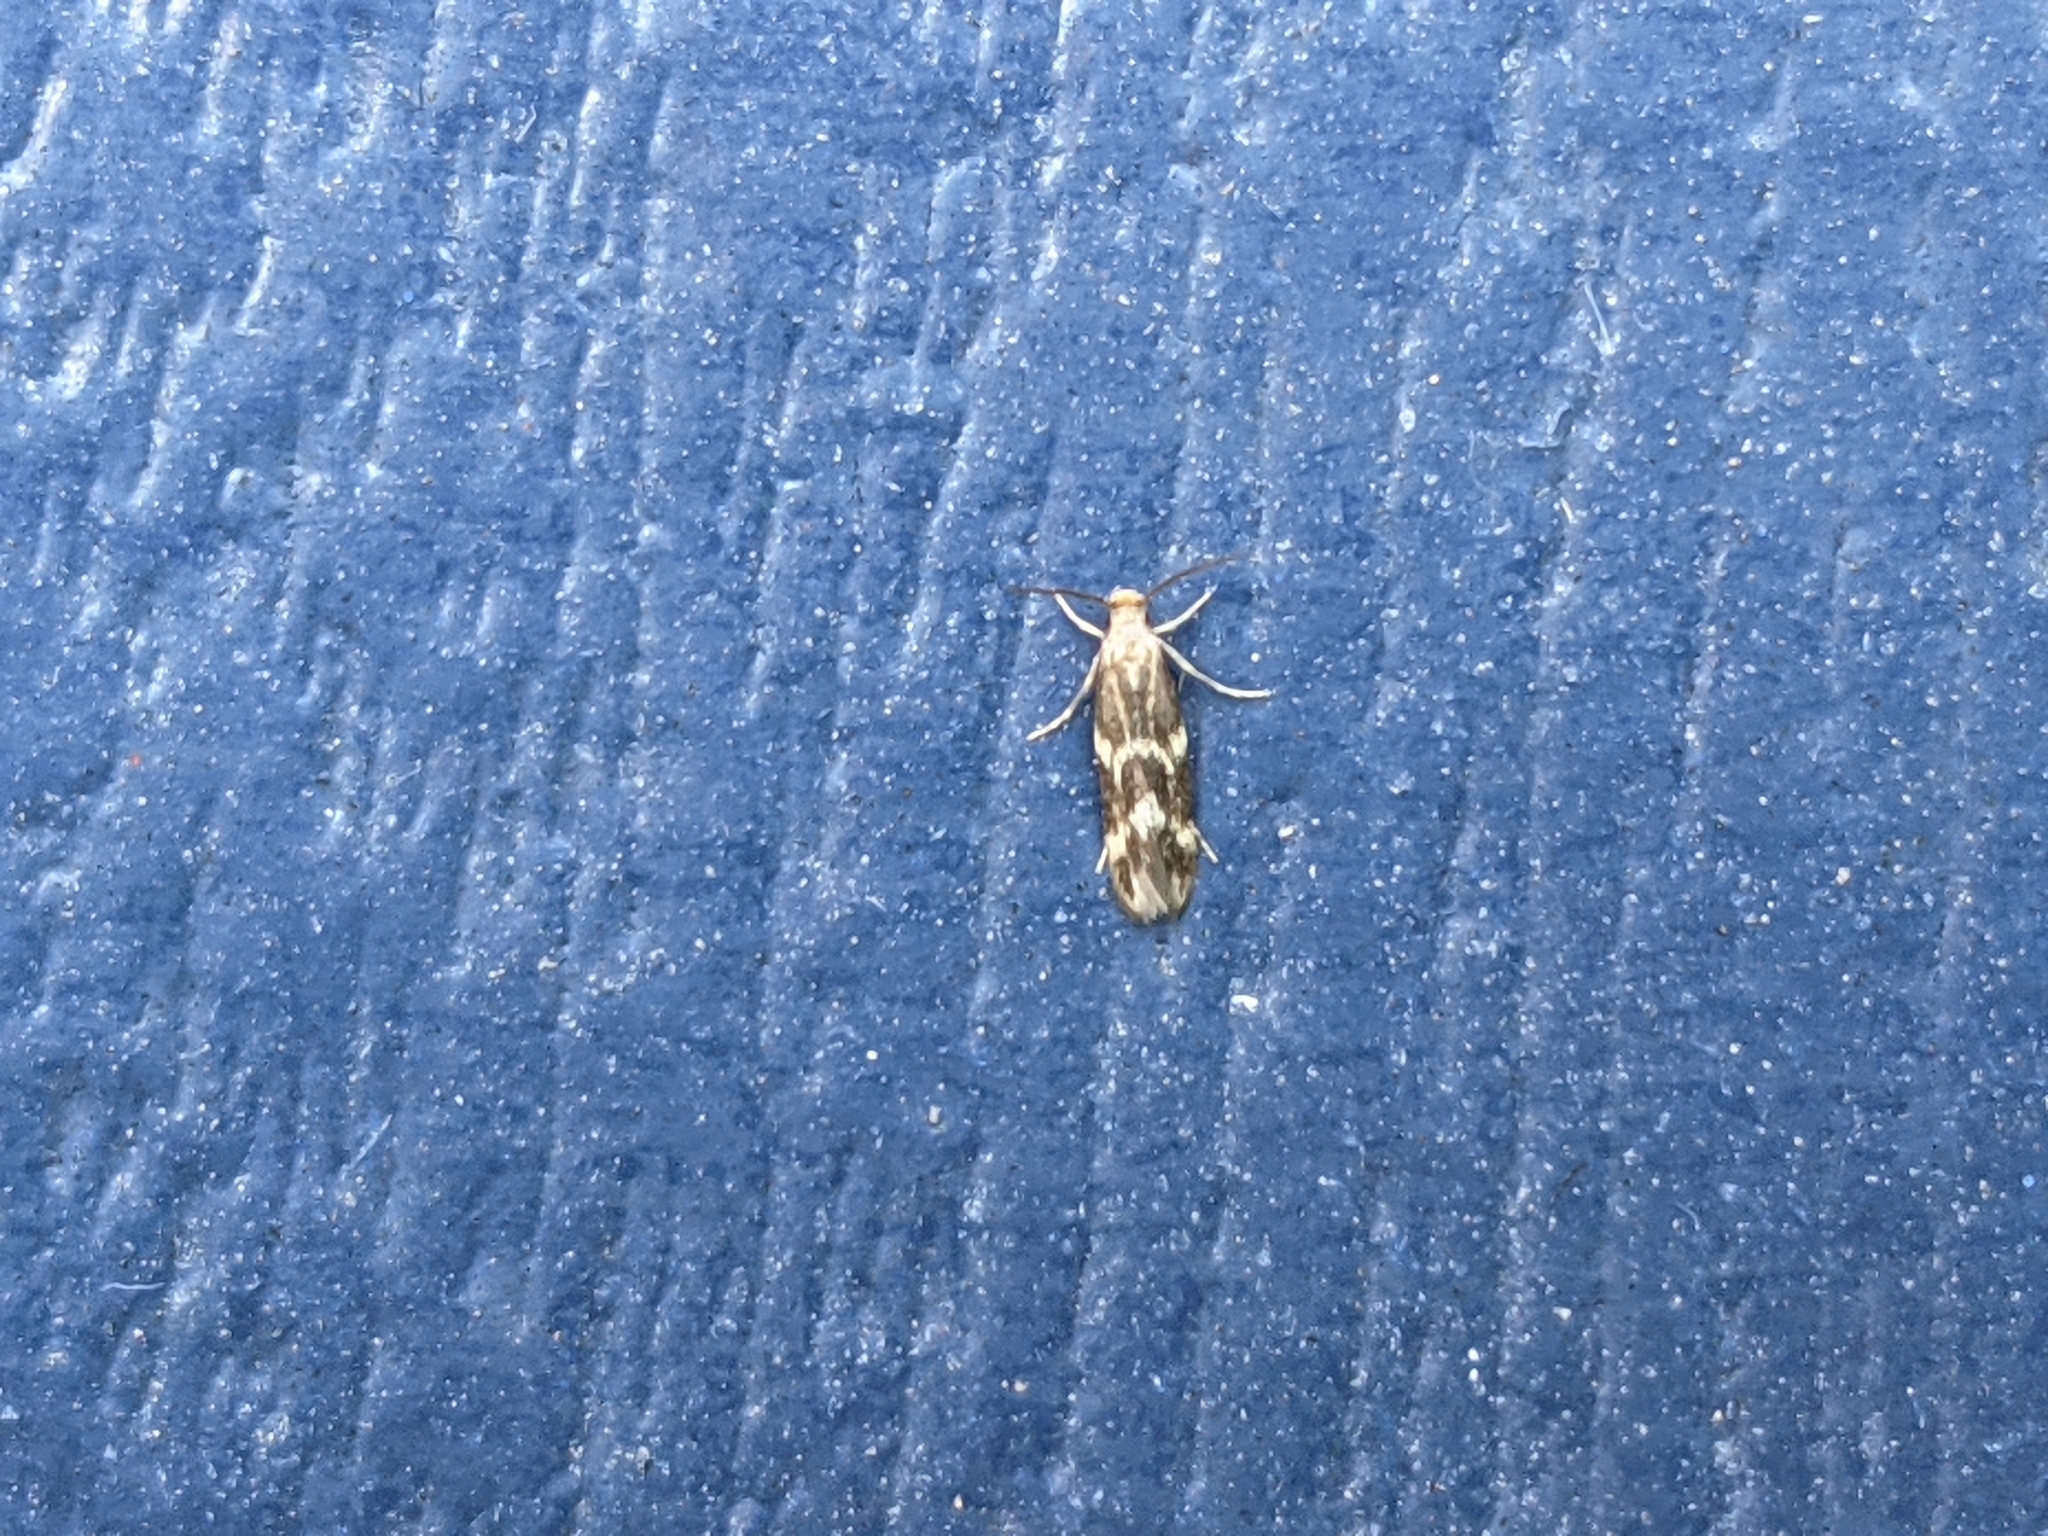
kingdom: Animalia
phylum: Arthropoda
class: Insecta
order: Lepidoptera
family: Tineidae
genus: Oinophila
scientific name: Oinophila v-flava
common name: Yellow v moth
